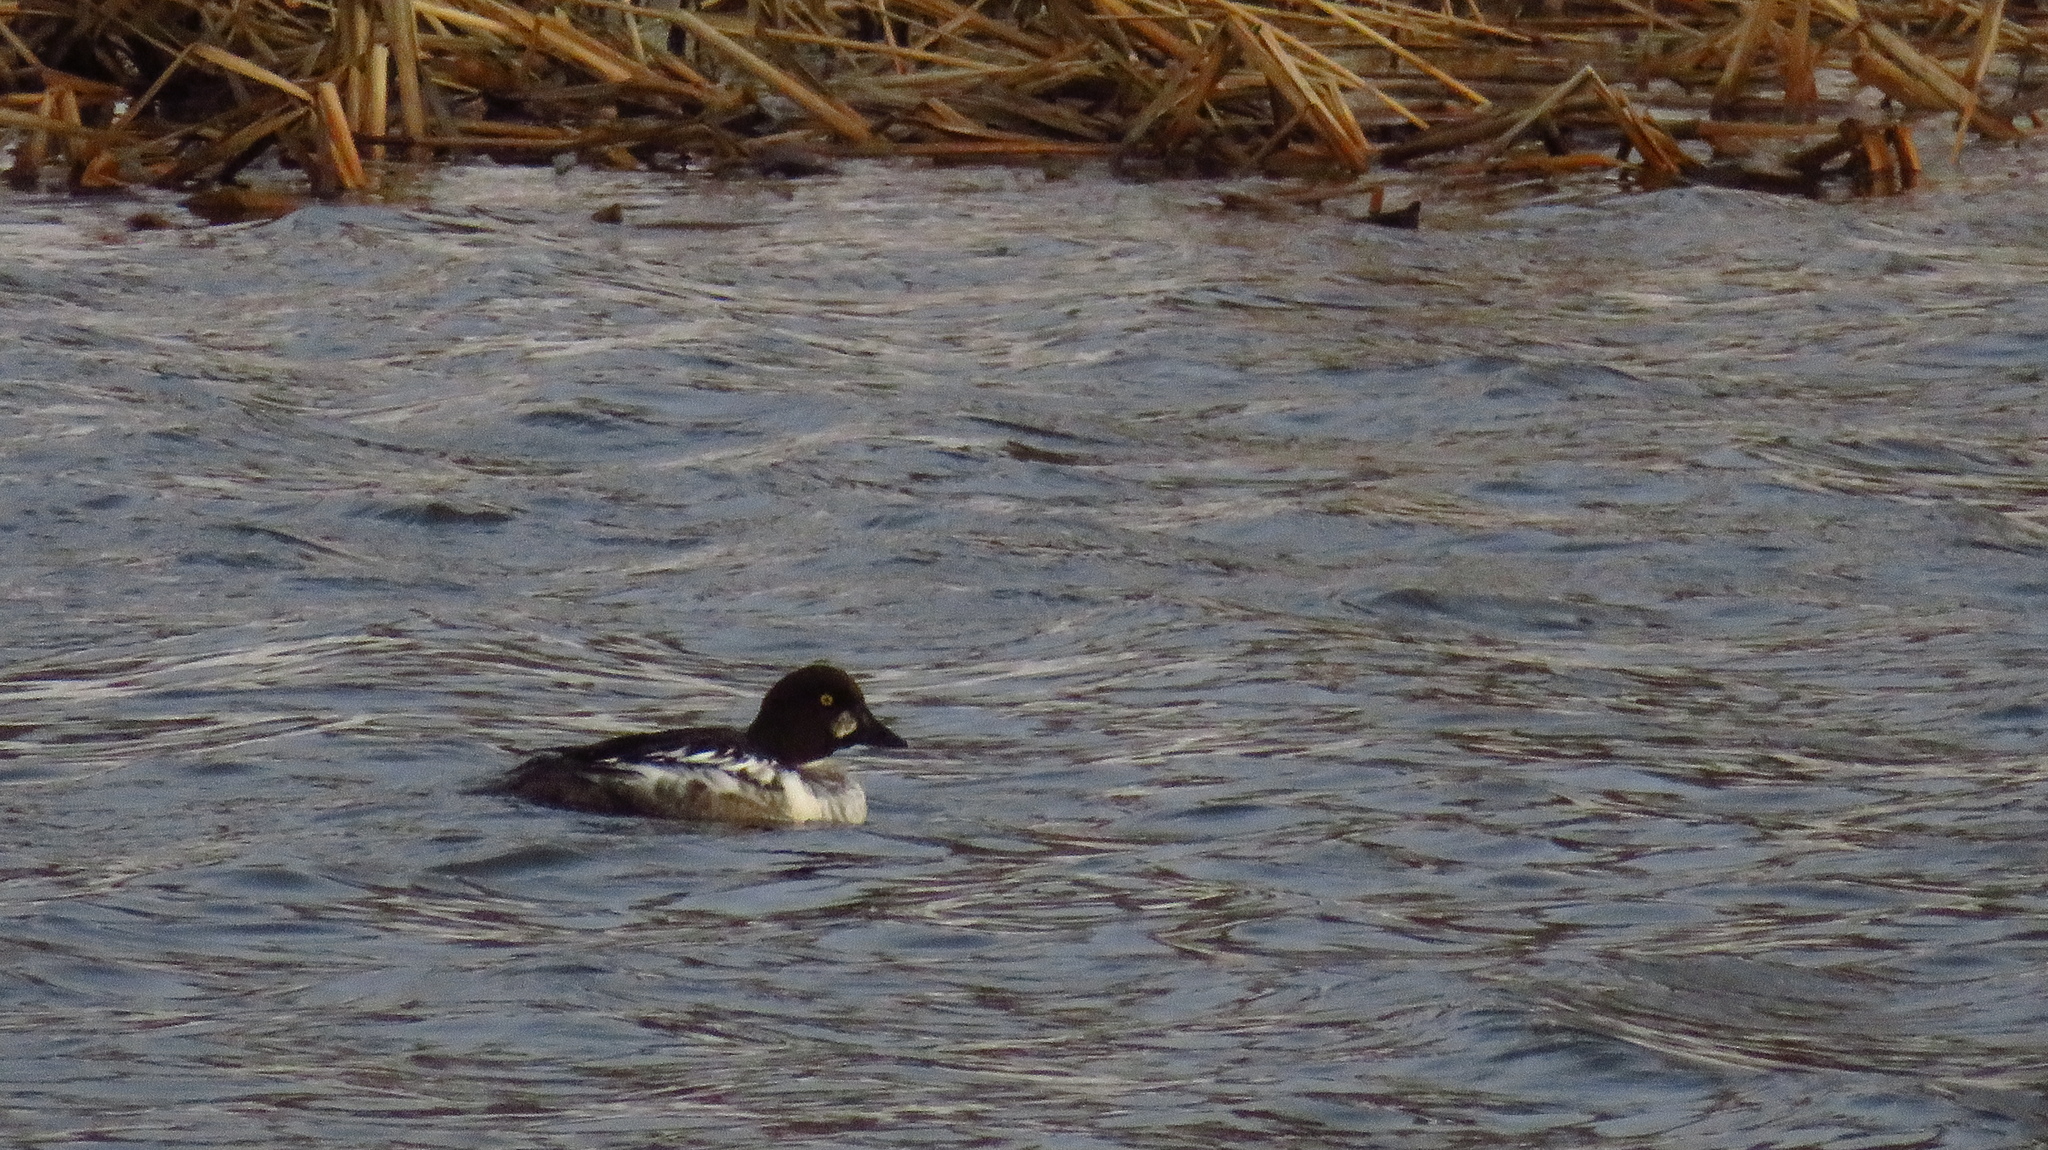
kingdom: Animalia
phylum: Chordata
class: Aves
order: Anseriformes
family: Anatidae
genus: Bucephala
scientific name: Bucephala clangula
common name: Common goldeneye
